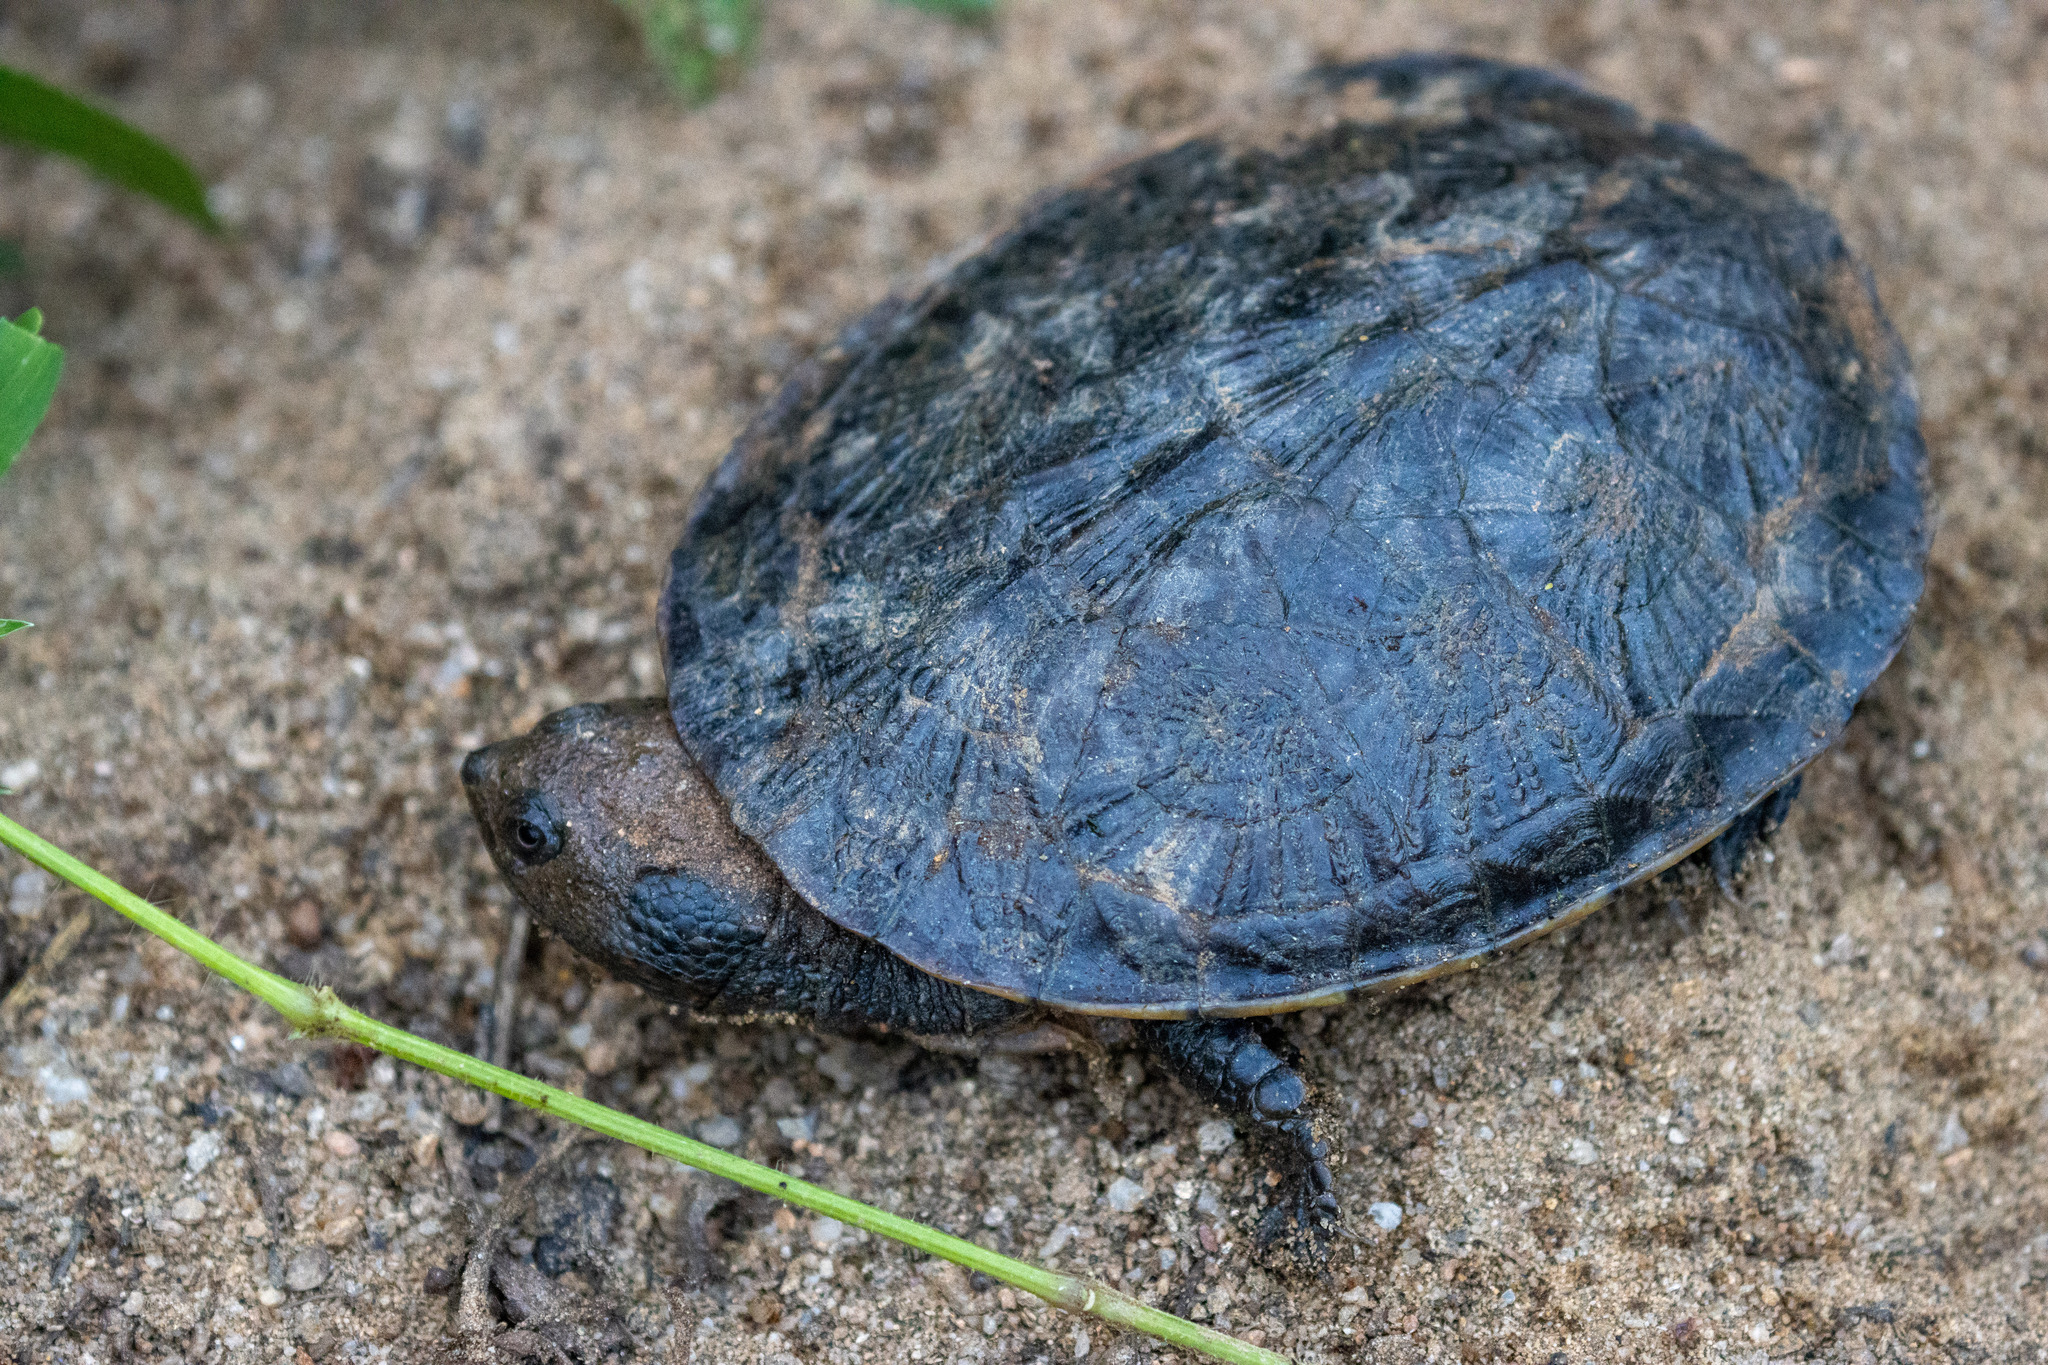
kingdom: Animalia
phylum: Chordata
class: Testudines
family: Chelidae
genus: Mesoclemmys
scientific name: Mesoclemmys tuberculata
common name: Tuberculate toad-headed turtle
